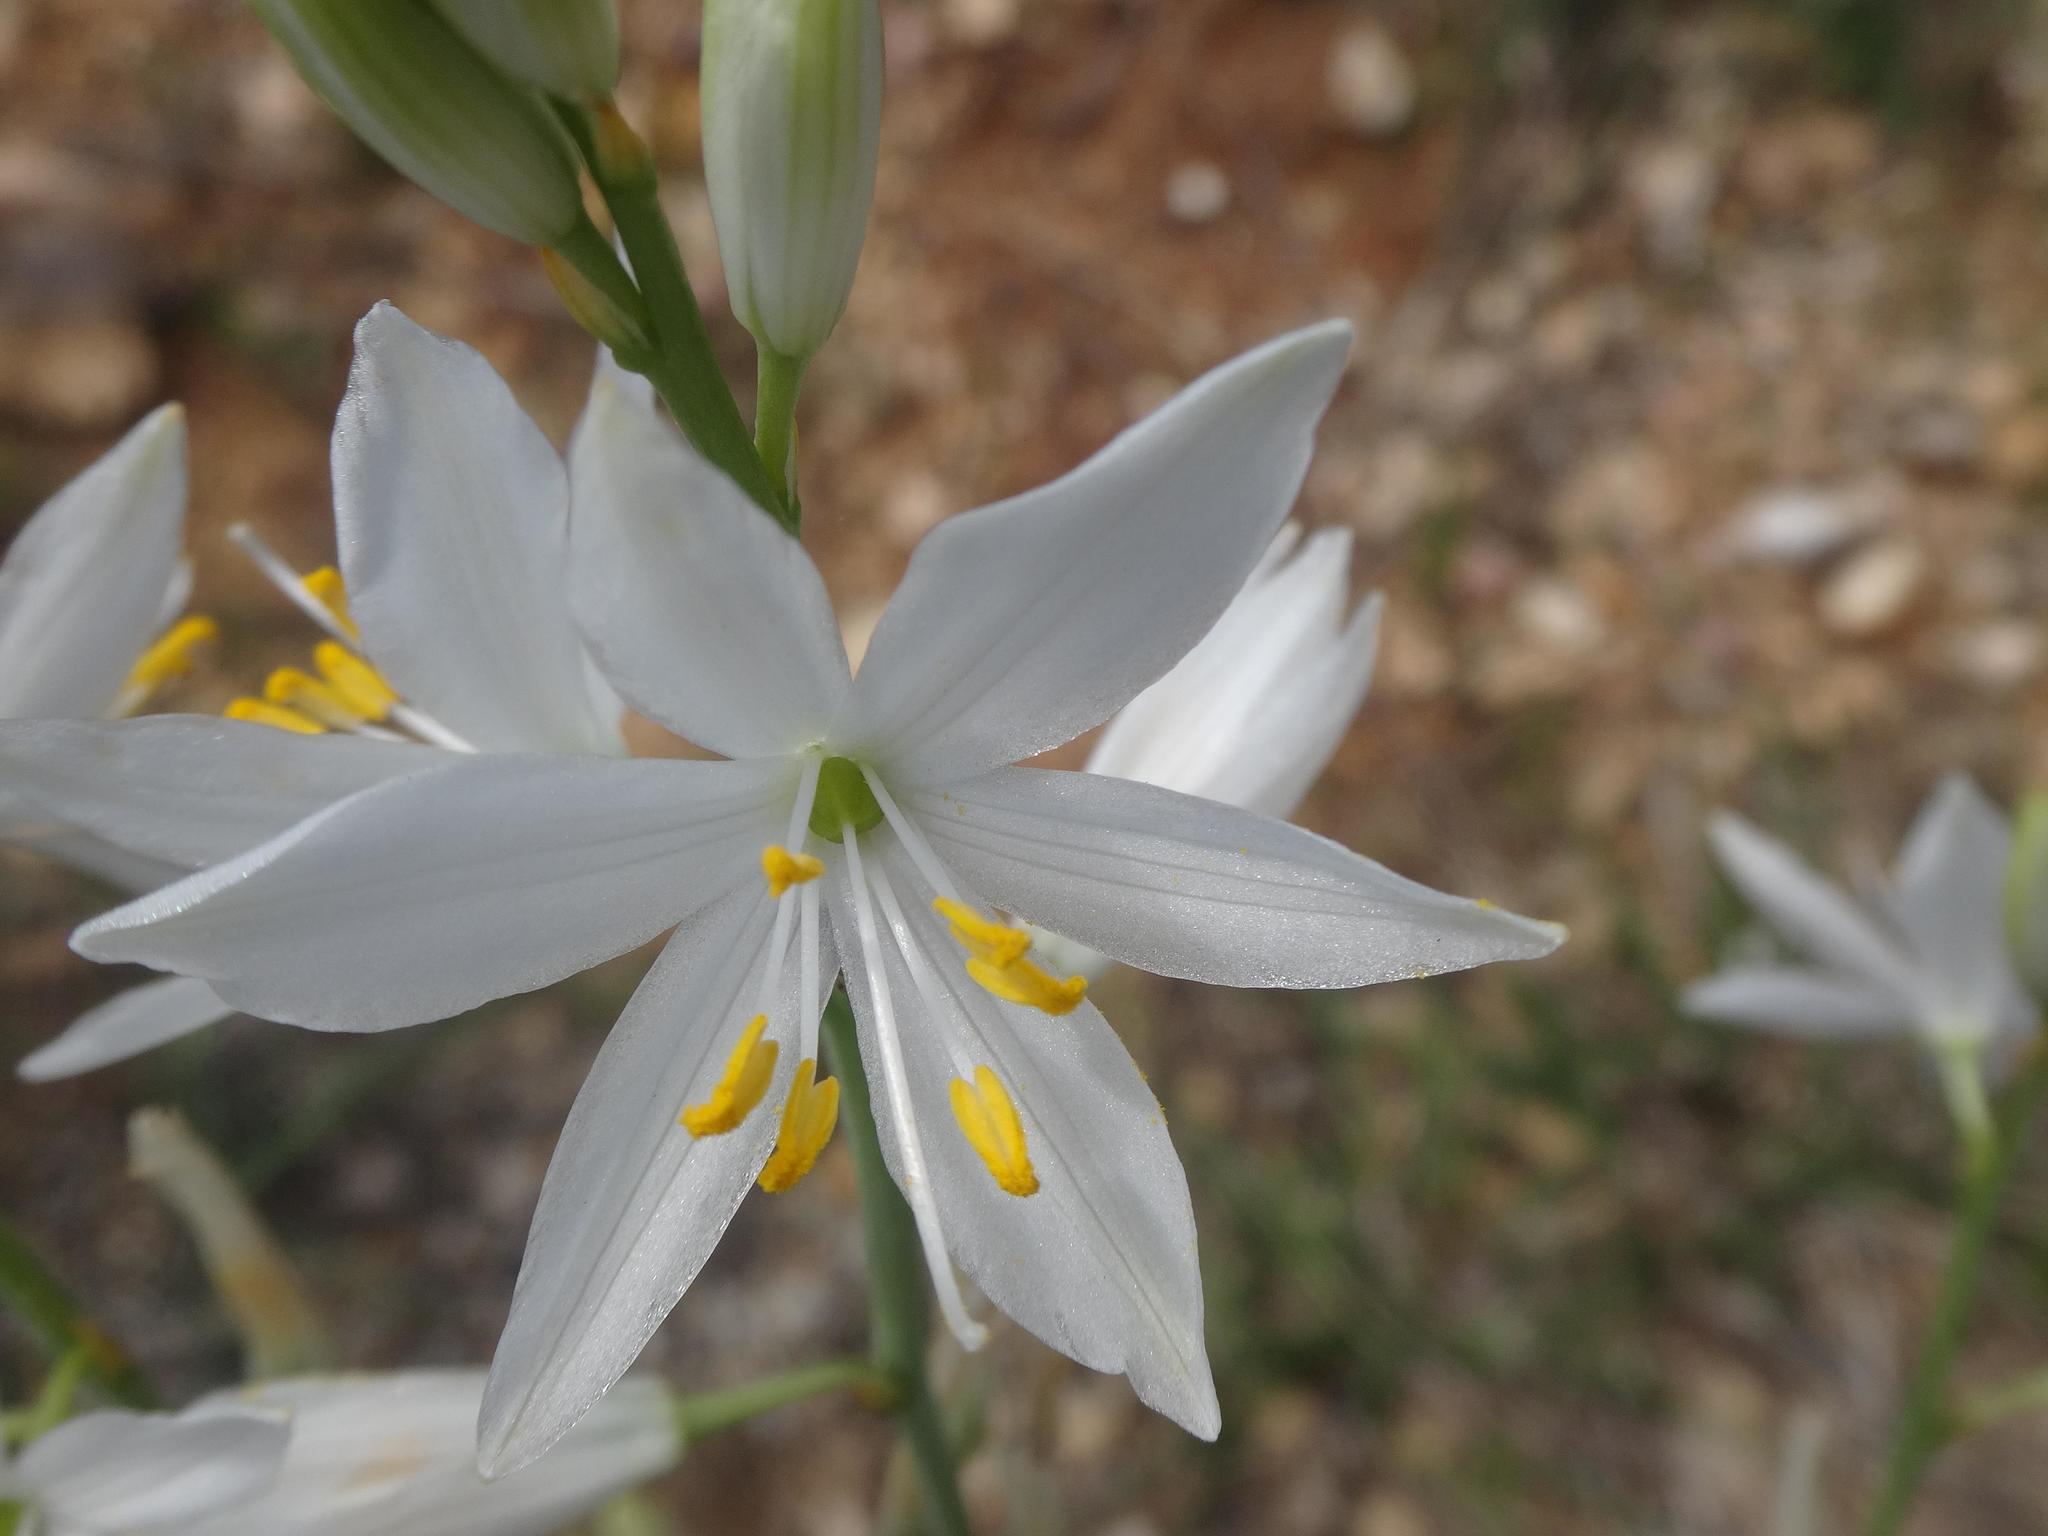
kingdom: Plantae
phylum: Tracheophyta
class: Liliopsida
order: Asparagales
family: Asparagaceae
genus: Anthericum
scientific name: Anthericum liliago
